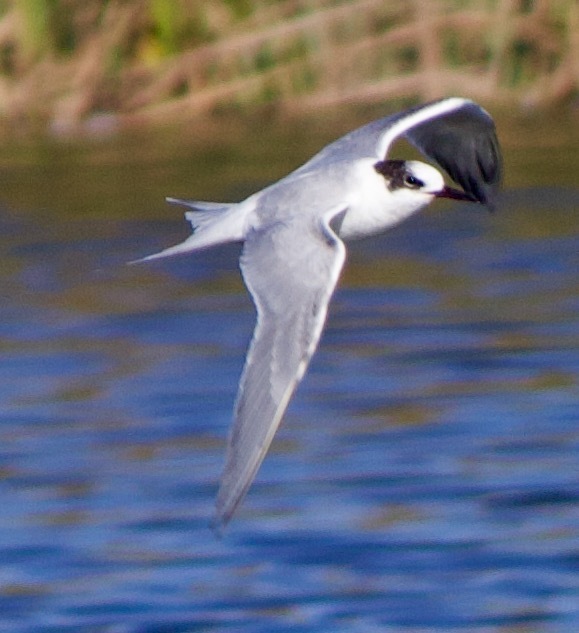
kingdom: Animalia
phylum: Chordata
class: Aves
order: Charadriiformes
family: Laridae
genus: Sterna
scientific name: Sterna hirundinacea
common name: South american tern
